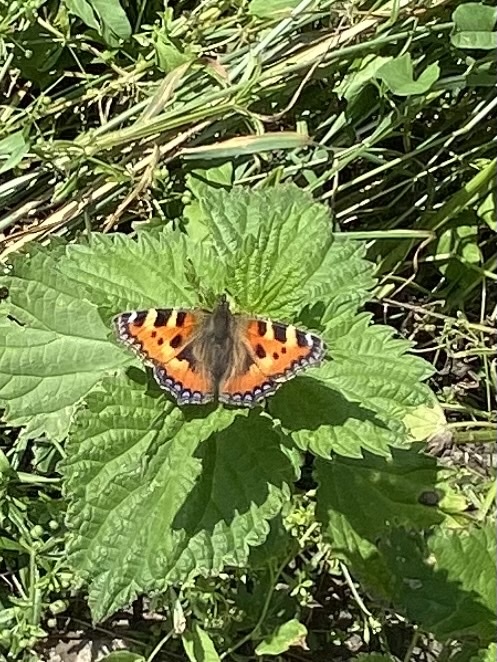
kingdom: Animalia
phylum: Arthropoda
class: Insecta
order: Lepidoptera
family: Nymphalidae
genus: Aglais
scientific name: Aglais urticae
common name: Small tortoiseshell
